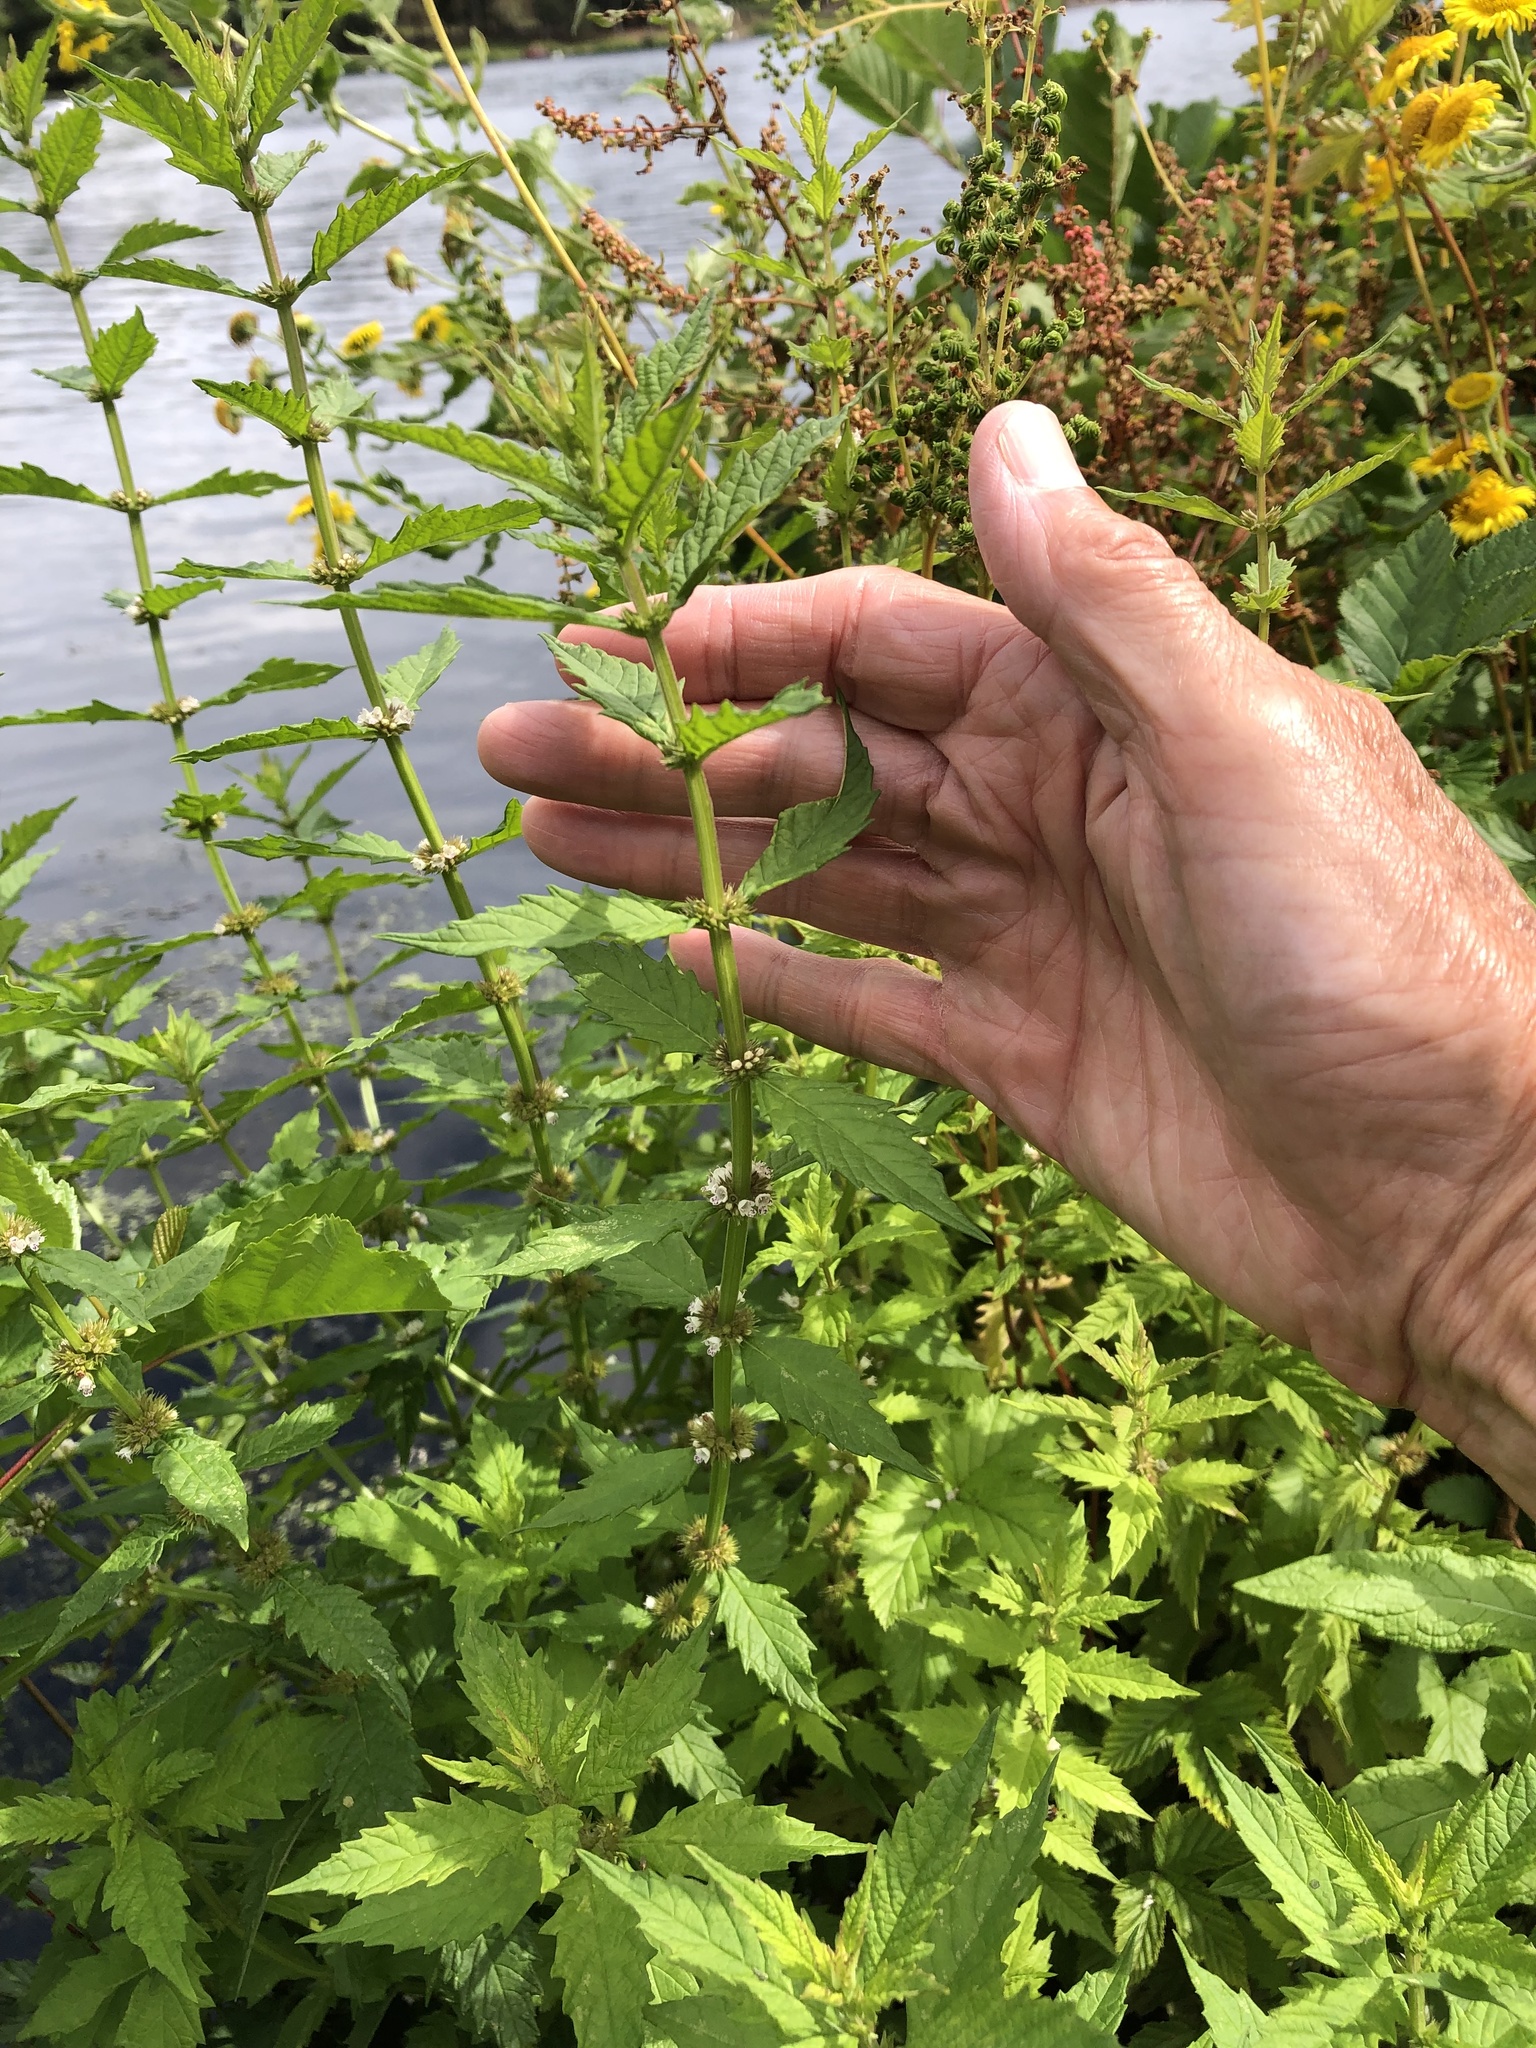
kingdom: Plantae
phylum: Tracheophyta
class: Magnoliopsida
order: Lamiales
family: Lamiaceae
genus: Lycopus
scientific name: Lycopus europaeus
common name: European bugleweed
